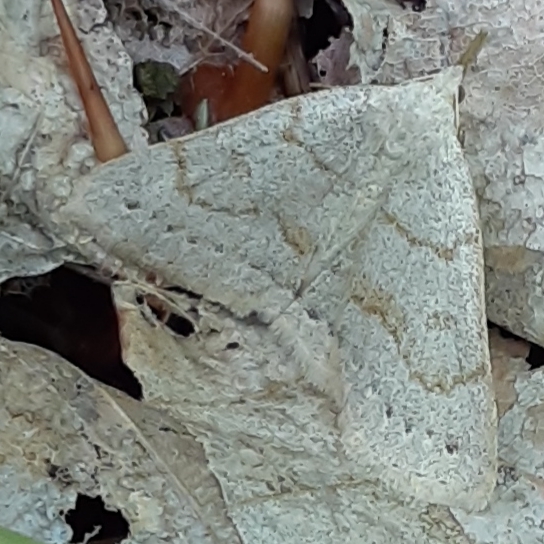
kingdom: Animalia
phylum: Arthropoda
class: Insecta
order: Lepidoptera
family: Erebidae
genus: Macrochilo
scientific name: Macrochilo morbidalis
